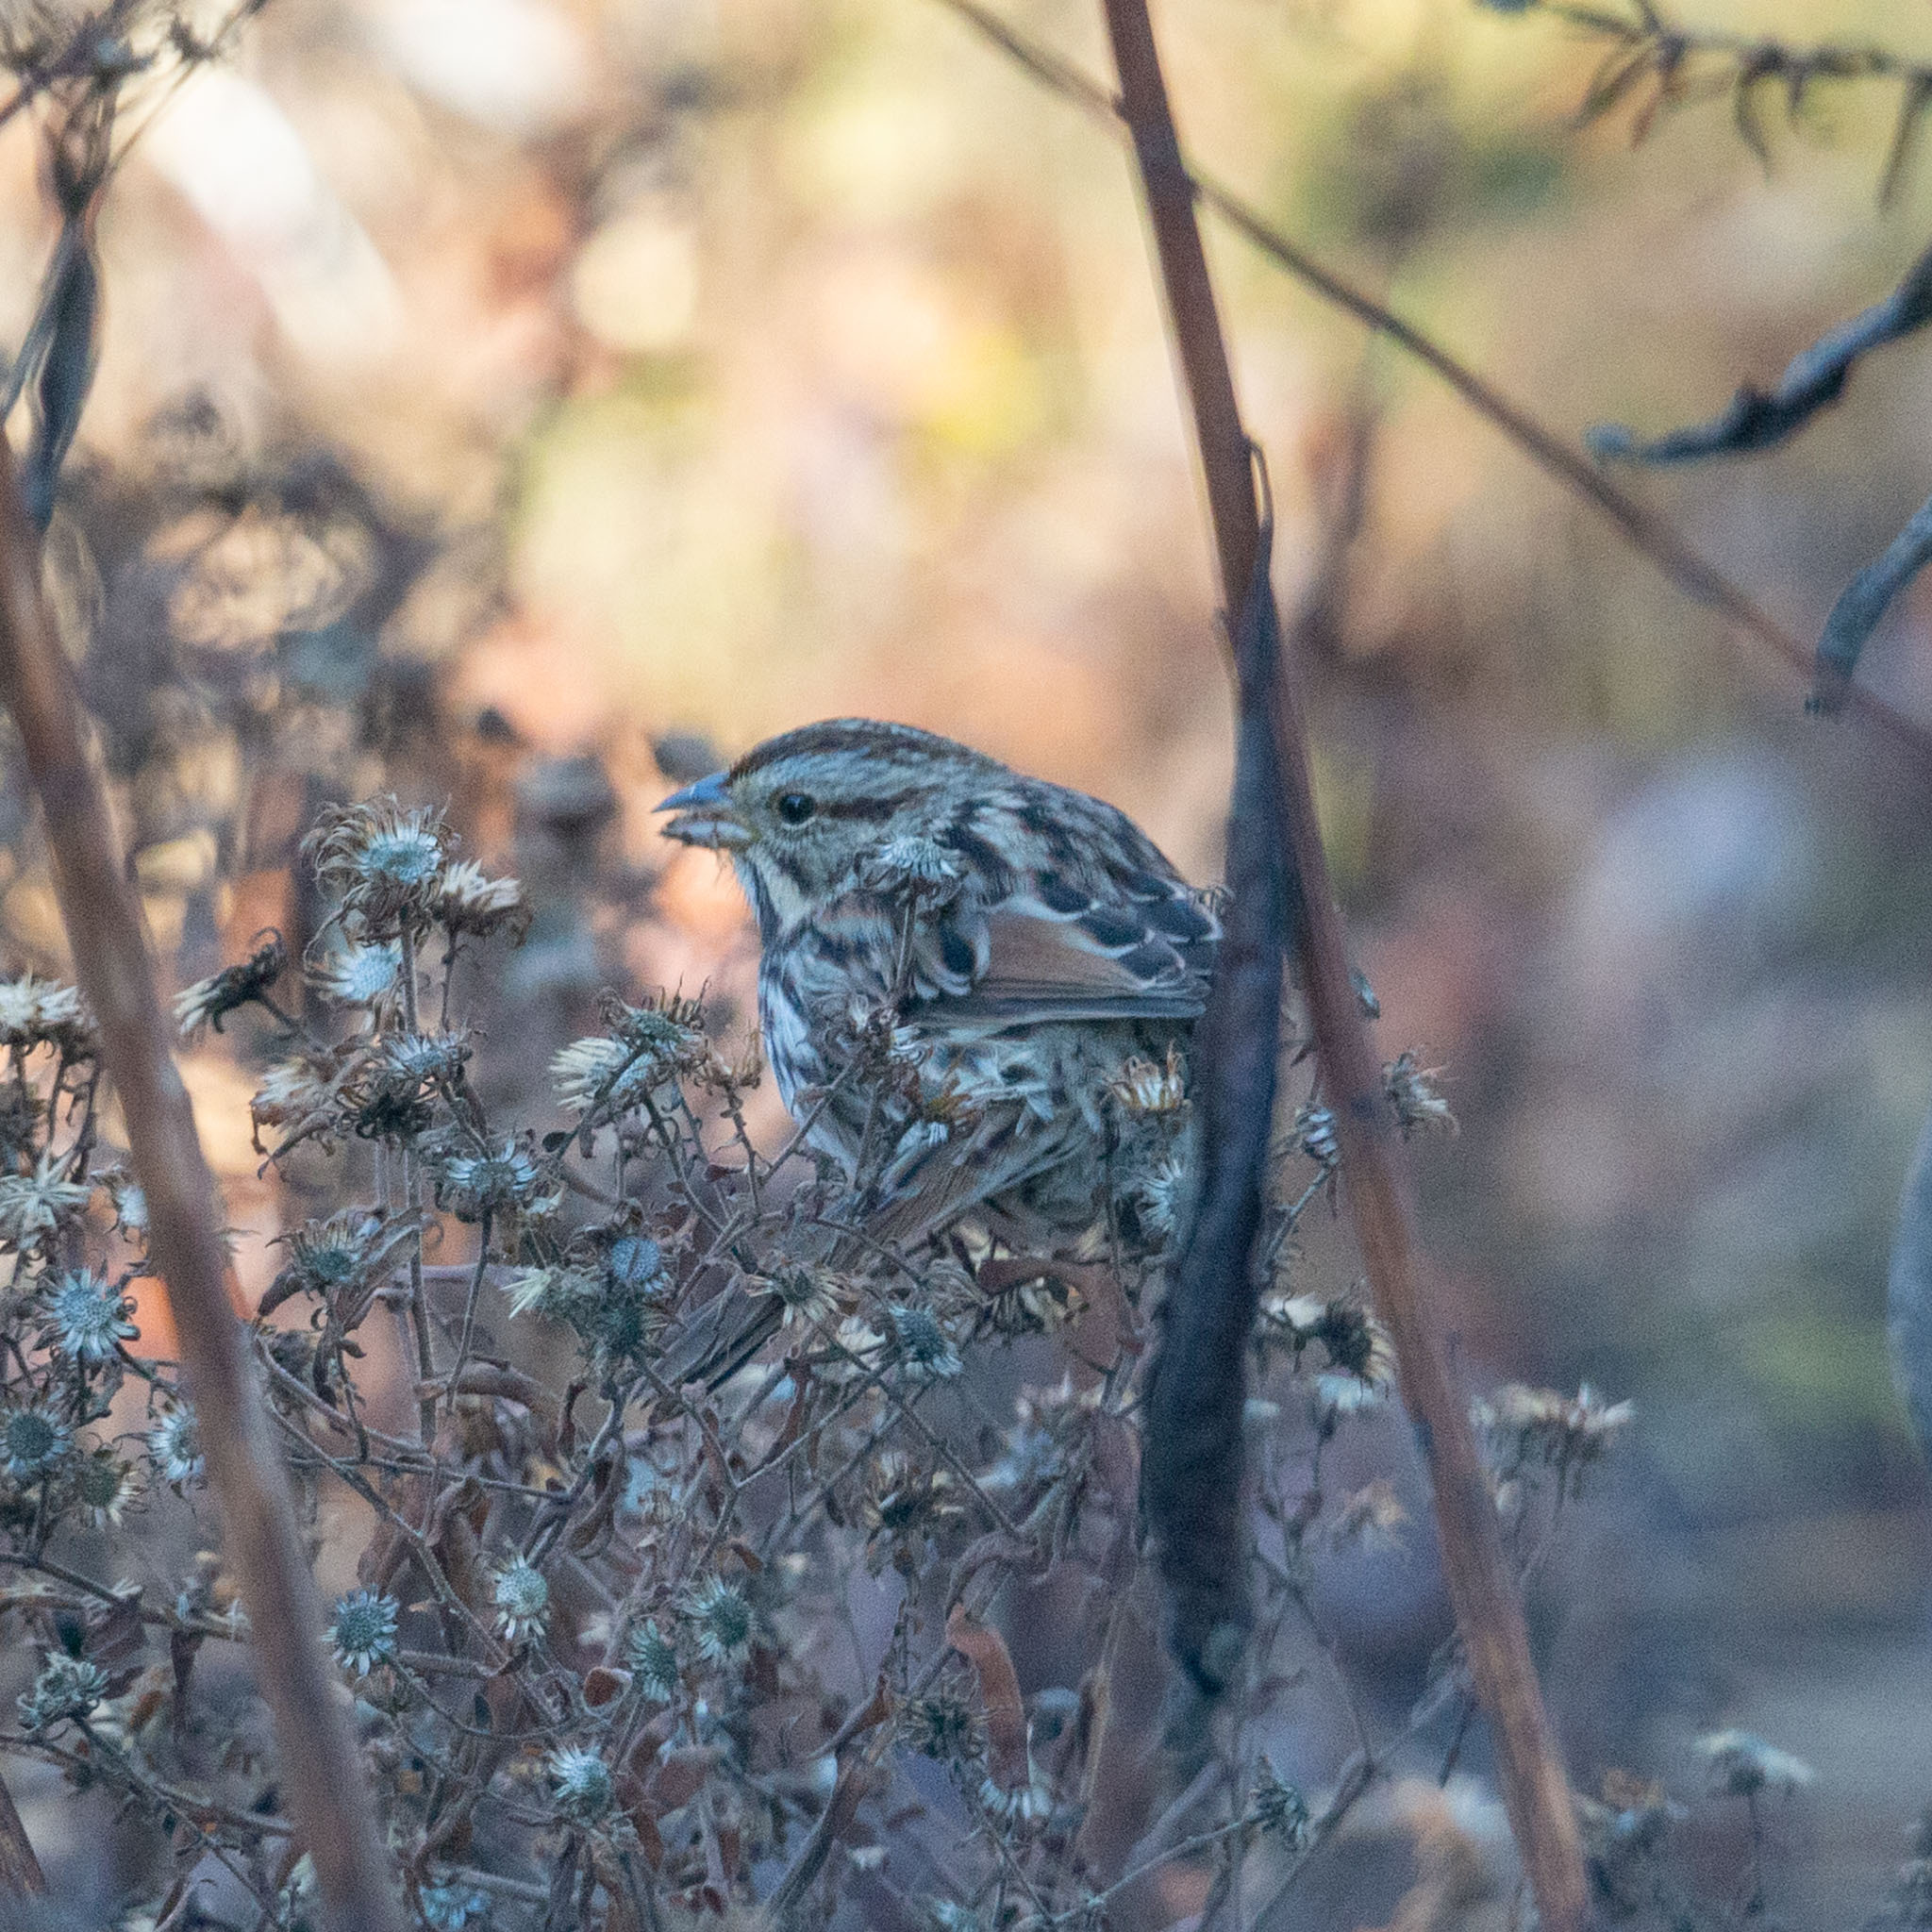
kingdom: Animalia
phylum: Chordata
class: Aves
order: Passeriformes
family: Passerellidae
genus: Melospiza
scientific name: Melospiza melodia
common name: Song sparrow
